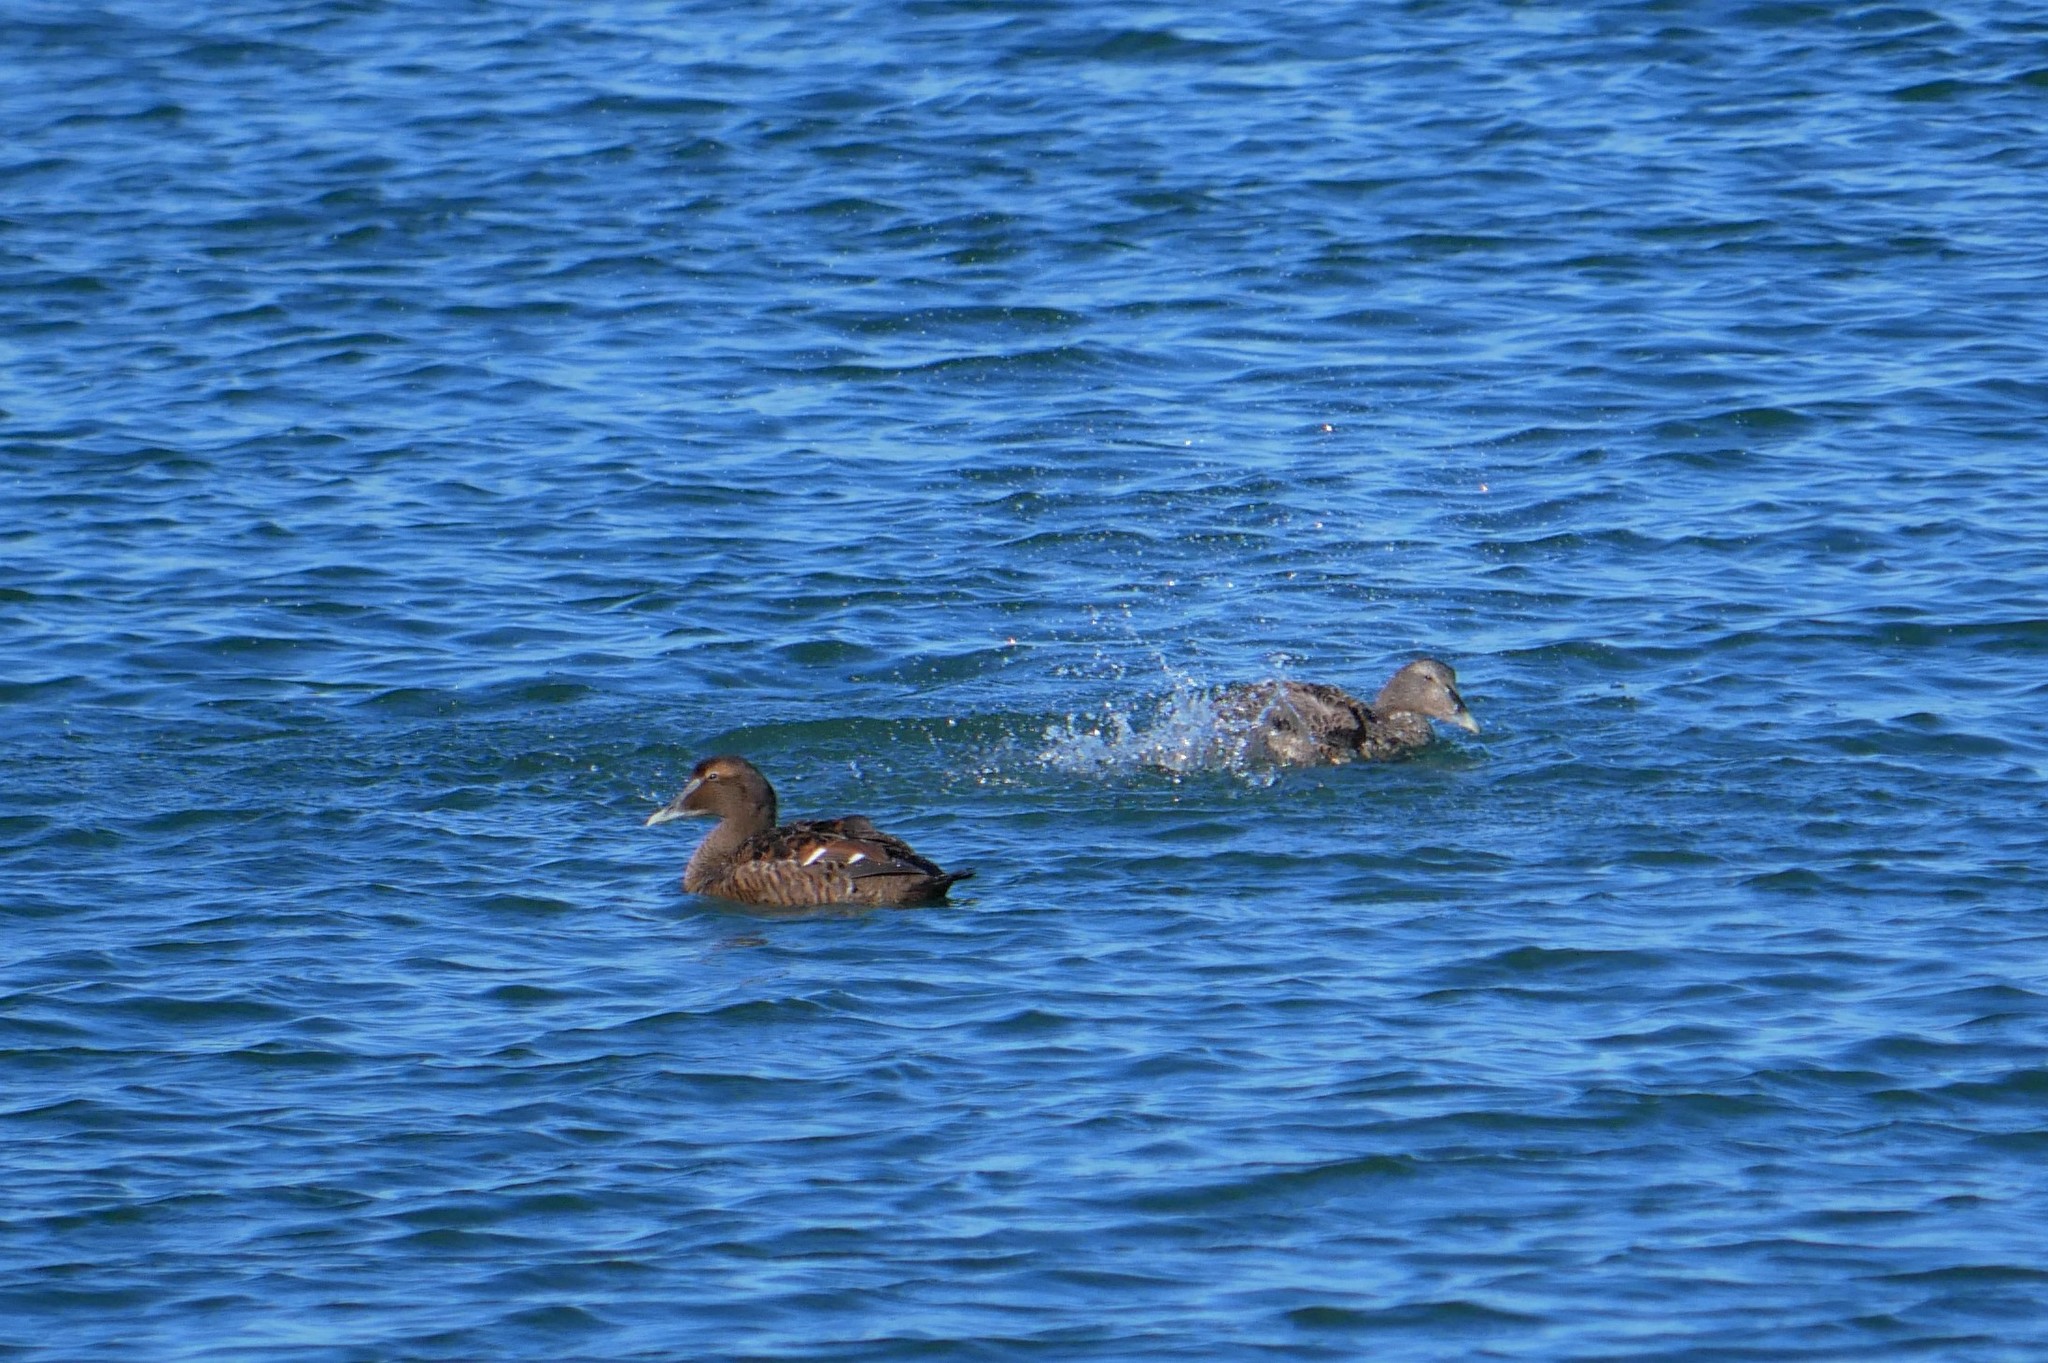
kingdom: Animalia
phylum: Chordata
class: Aves
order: Anseriformes
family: Anatidae
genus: Somateria
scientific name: Somateria mollissima
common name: Common eider
